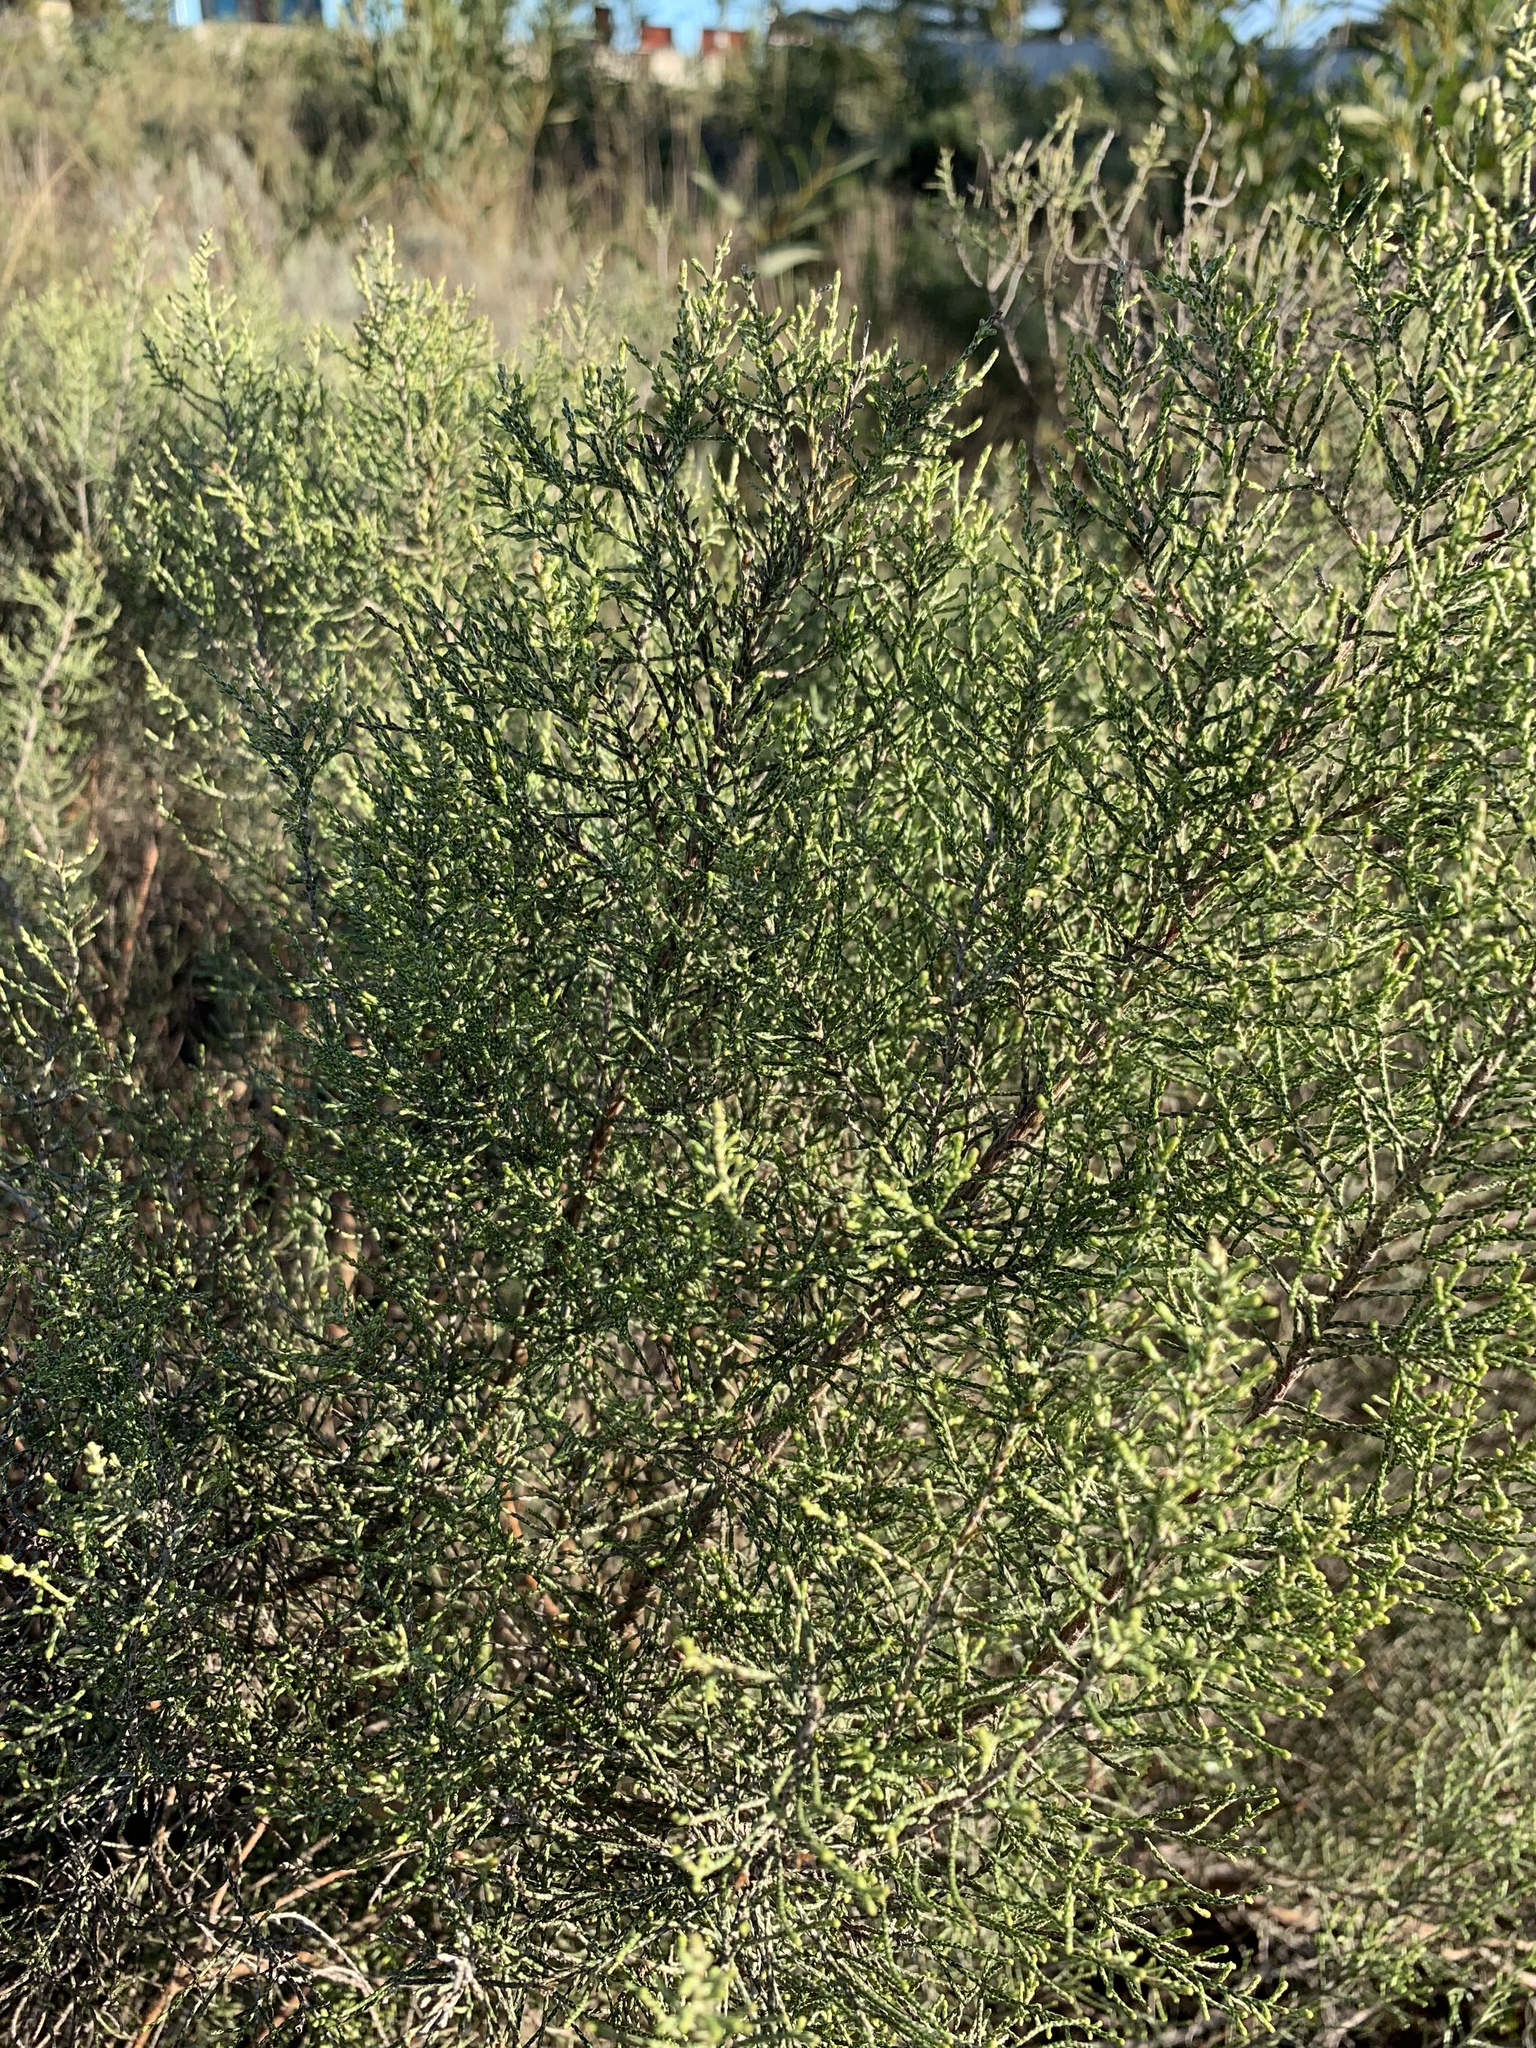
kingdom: Plantae
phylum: Tracheophyta
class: Magnoliopsida
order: Asterales
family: Asteraceae
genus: Dicerothamnus
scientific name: Dicerothamnus rhinocerotis
